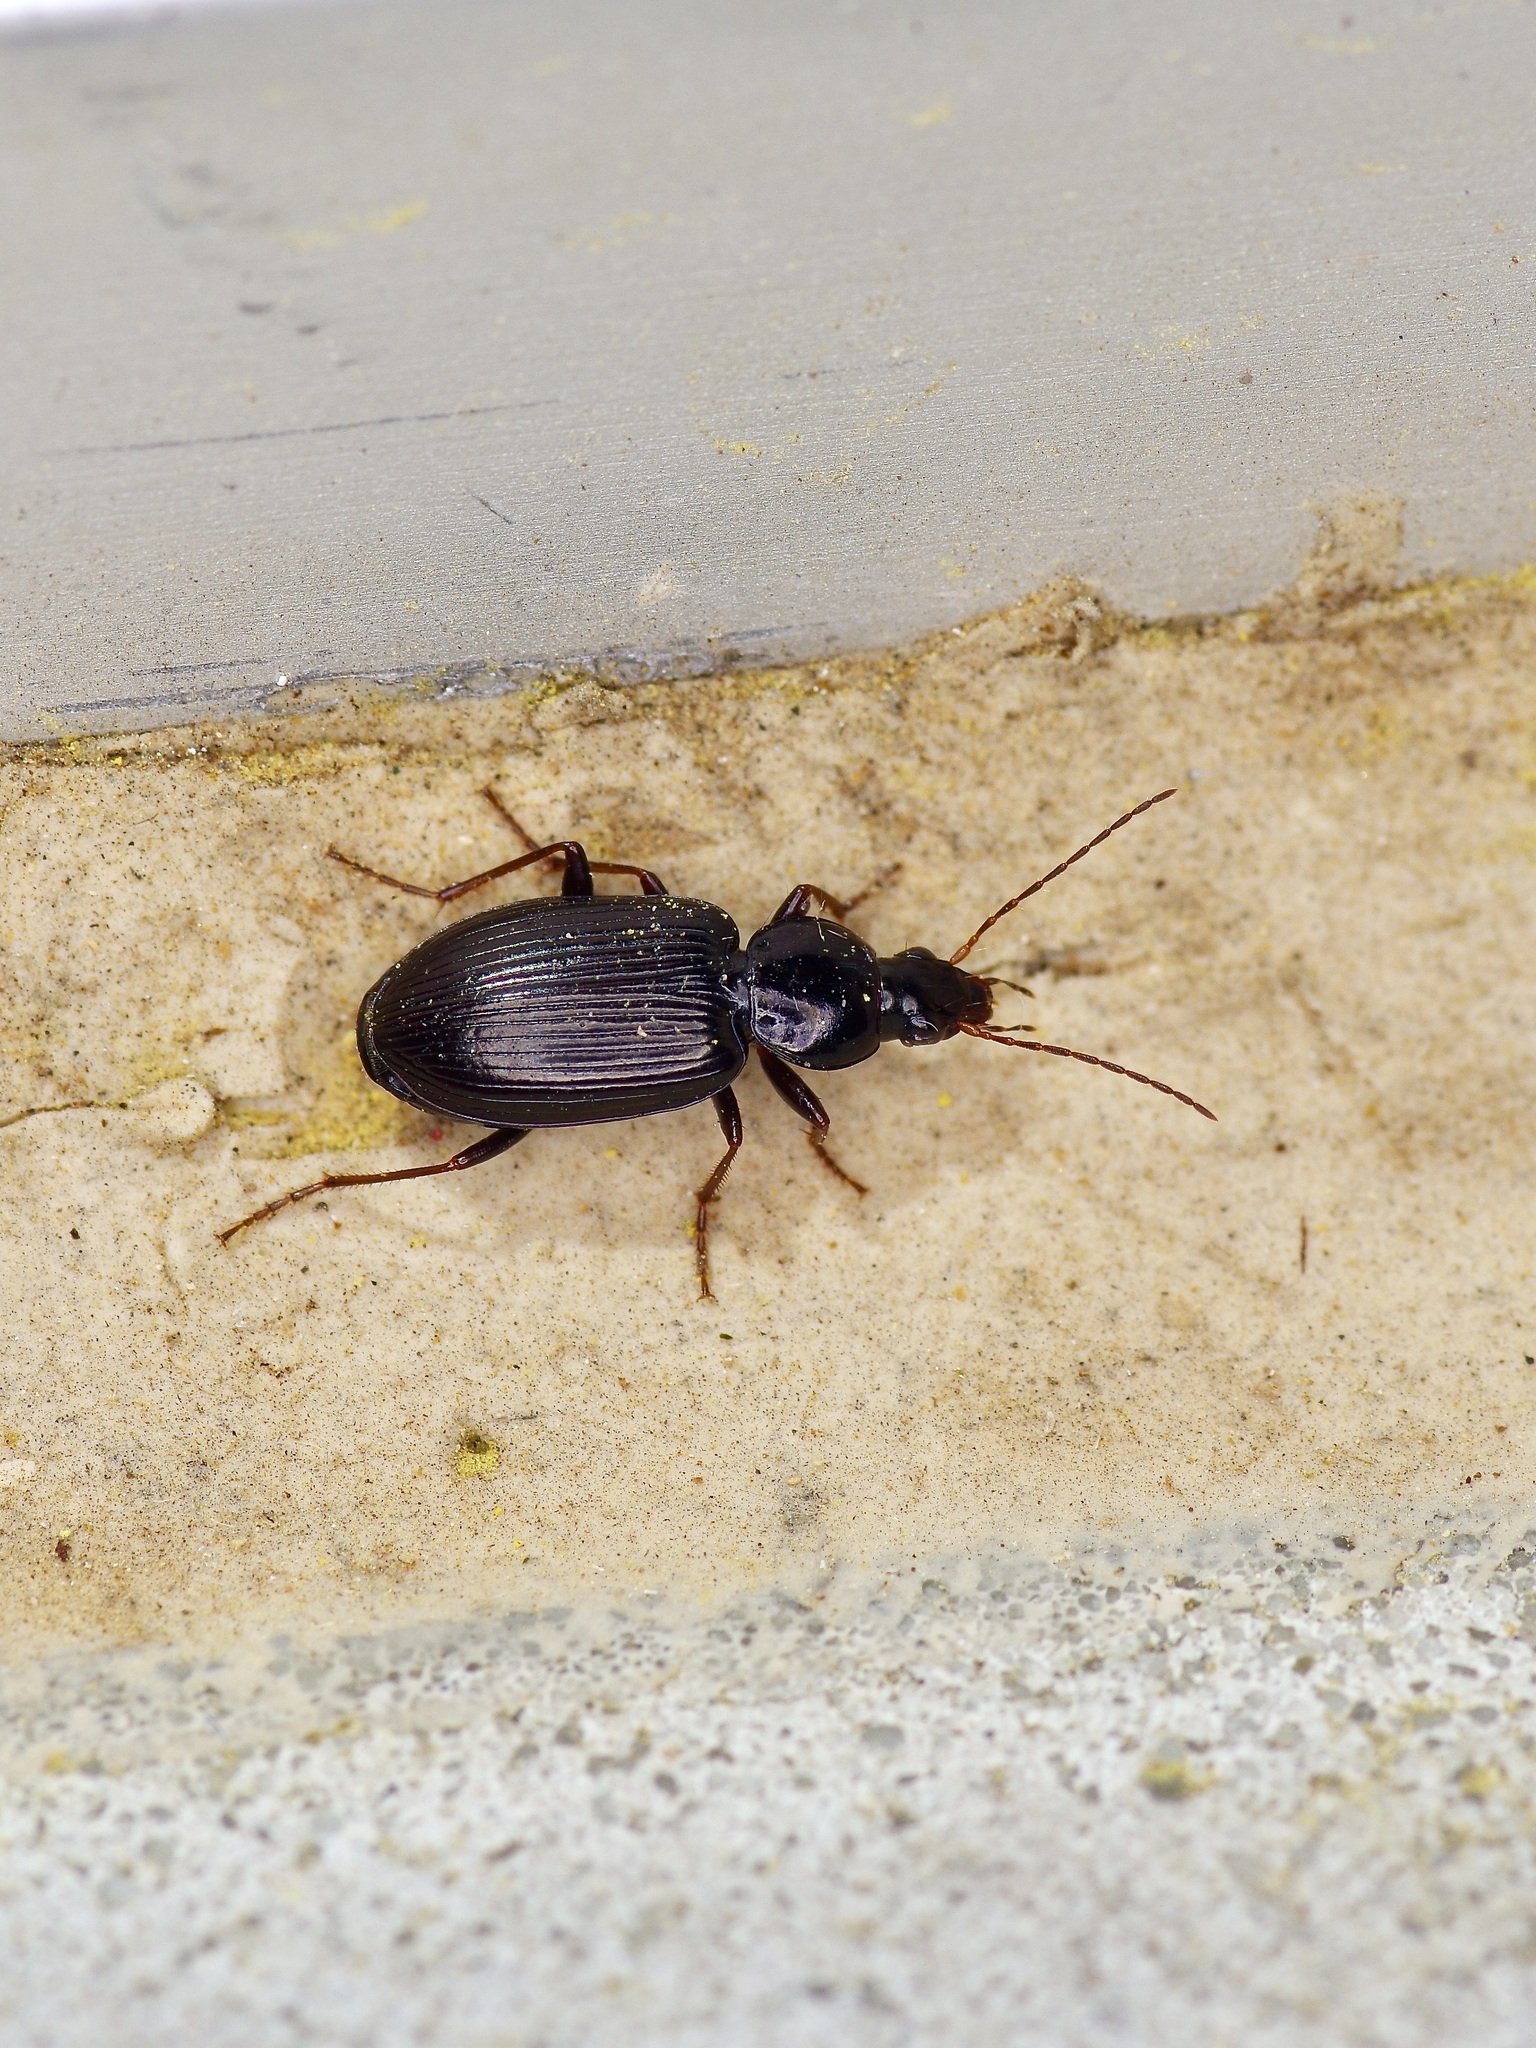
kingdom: Animalia
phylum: Arthropoda
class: Insecta
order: Coleoptera
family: Carabidae
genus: Agonum
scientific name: Agonum punctiforme
